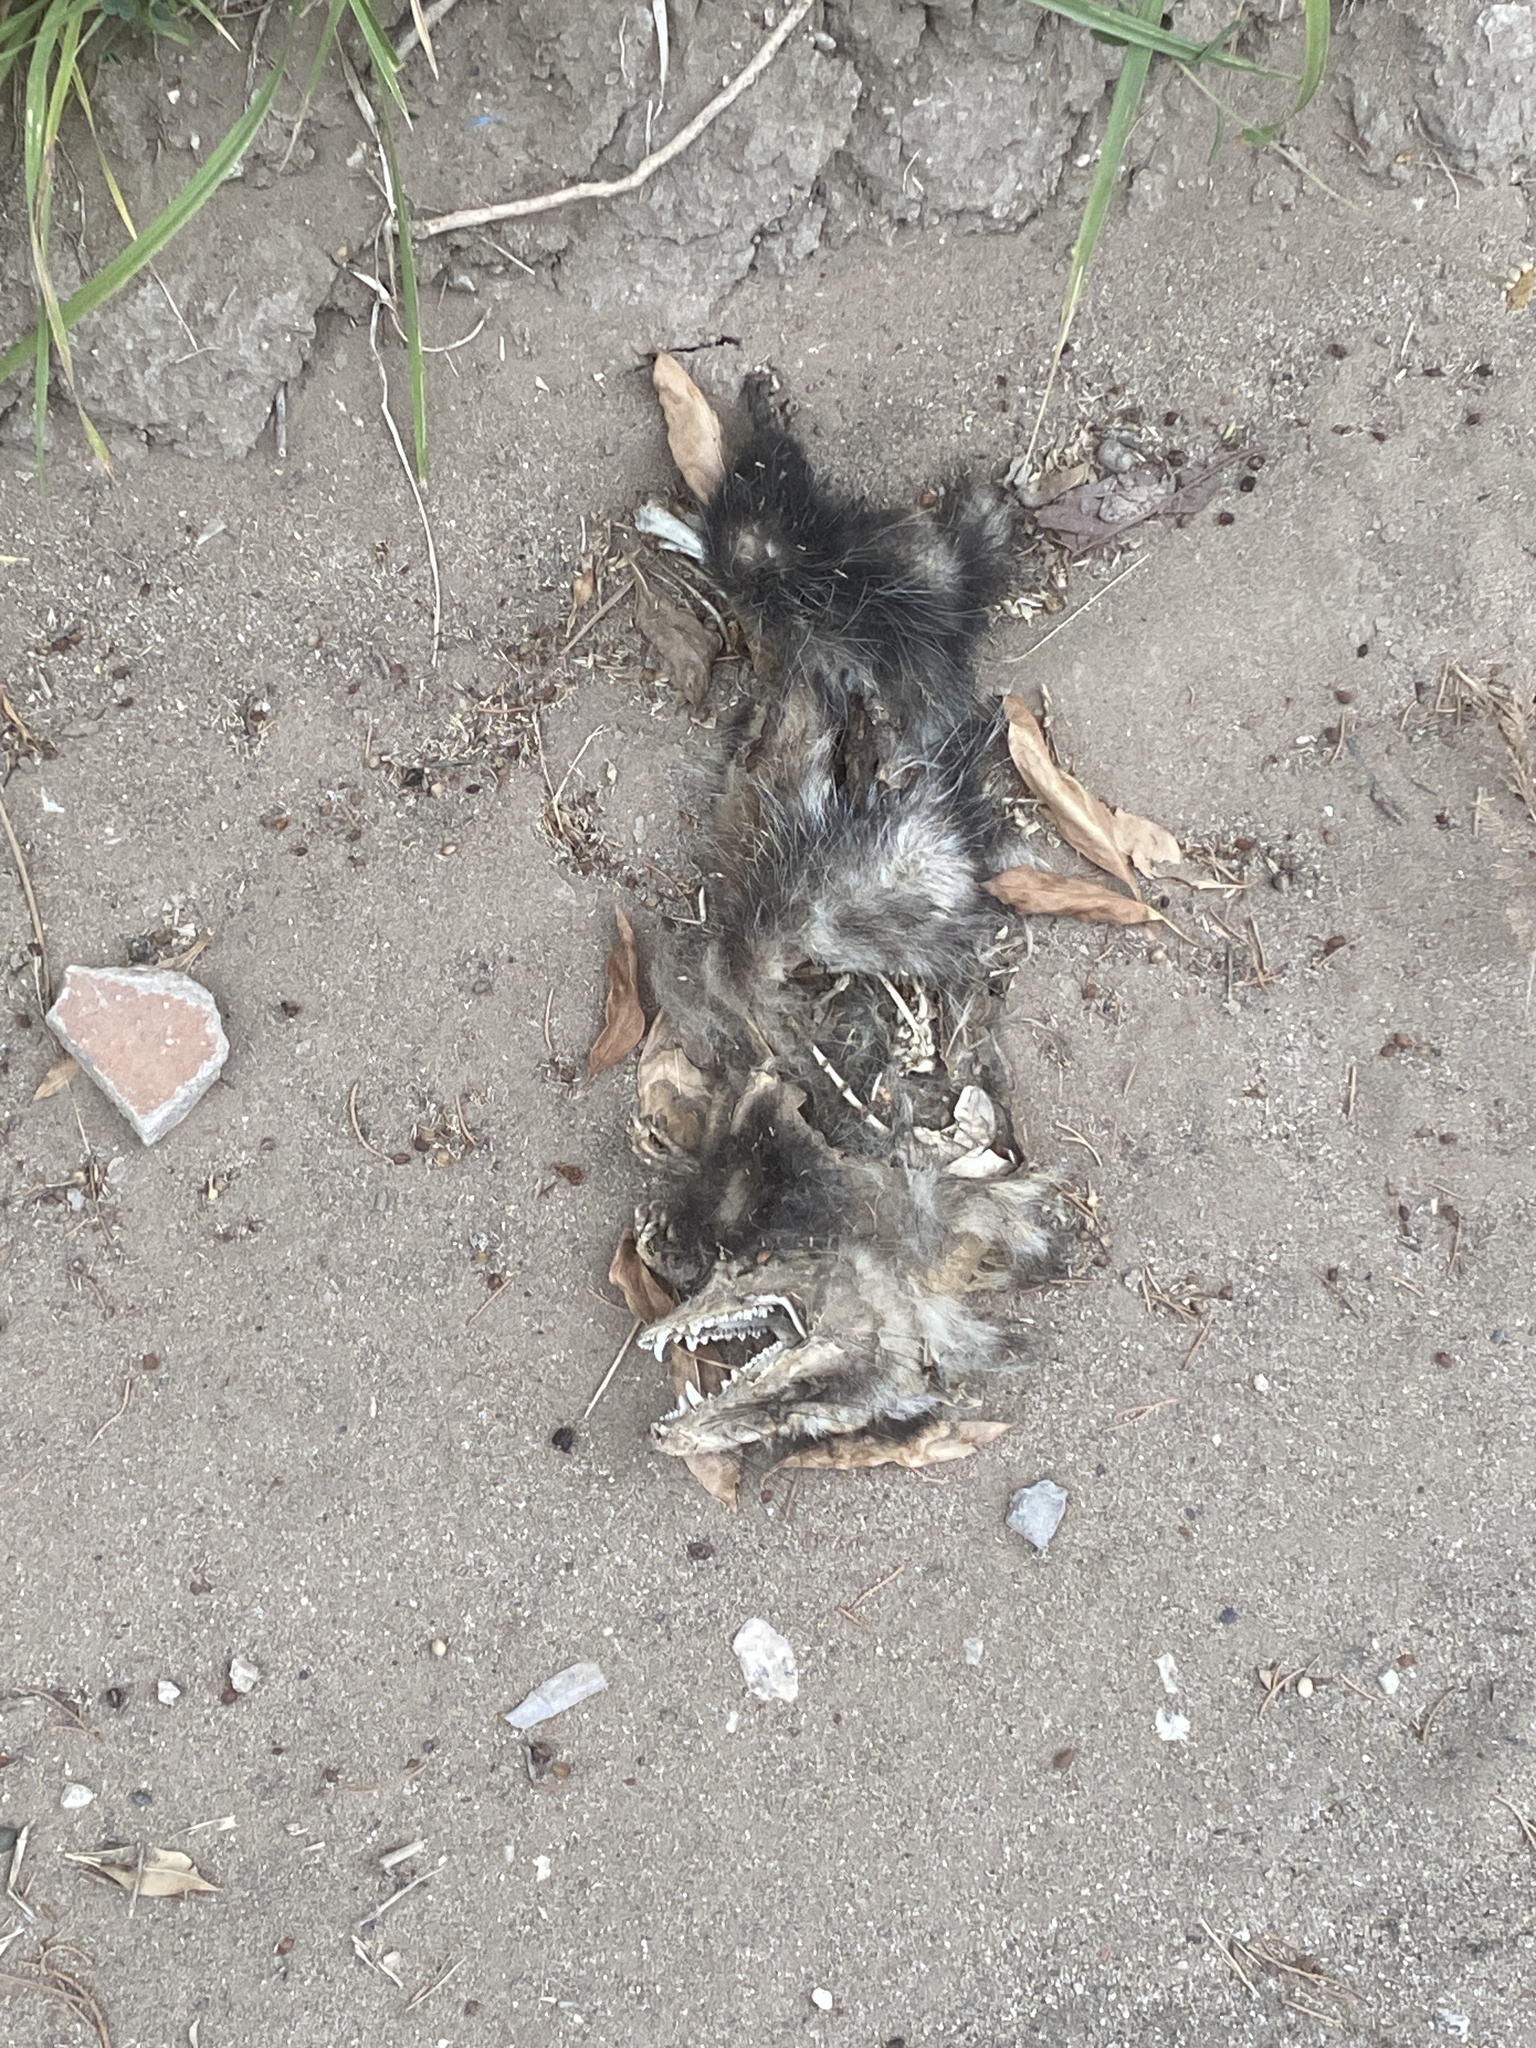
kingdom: Animalia
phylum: Chordata
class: Mammalia
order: Didelphimorphia
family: Didelphidae
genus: Didelphis
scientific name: Didelphis albiventris
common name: White-eared opossum
